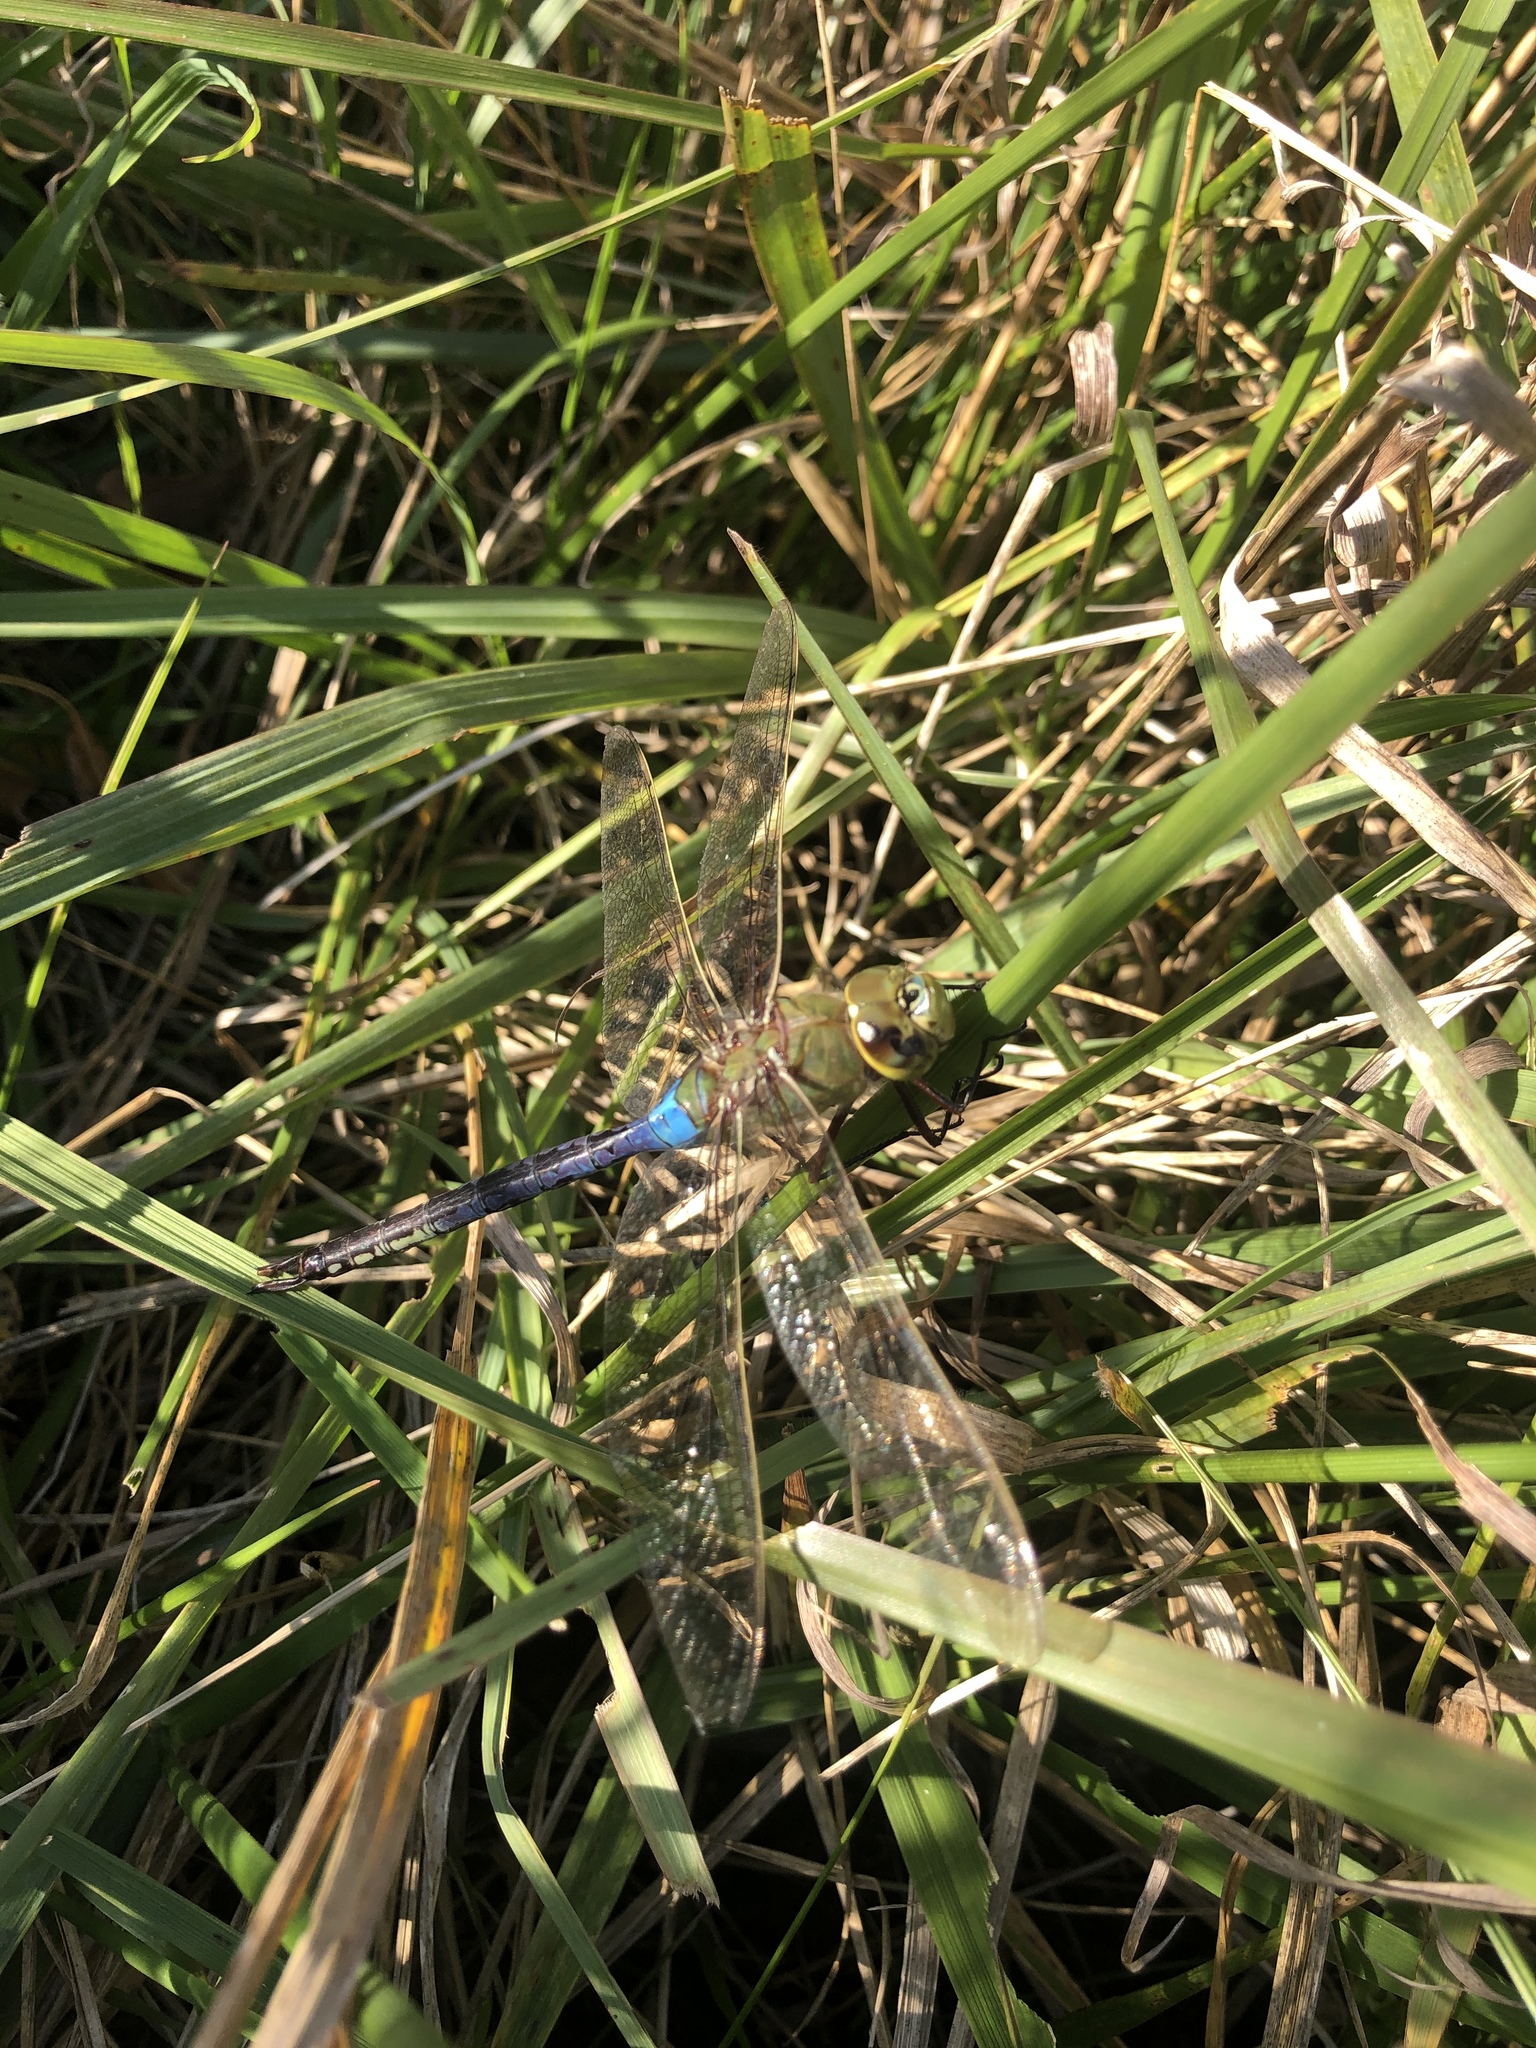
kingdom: Animalia
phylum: Arthropoda
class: Insecta
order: Odonata
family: Aeshnidae
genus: Anax
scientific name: Anax junius
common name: Common green darner
